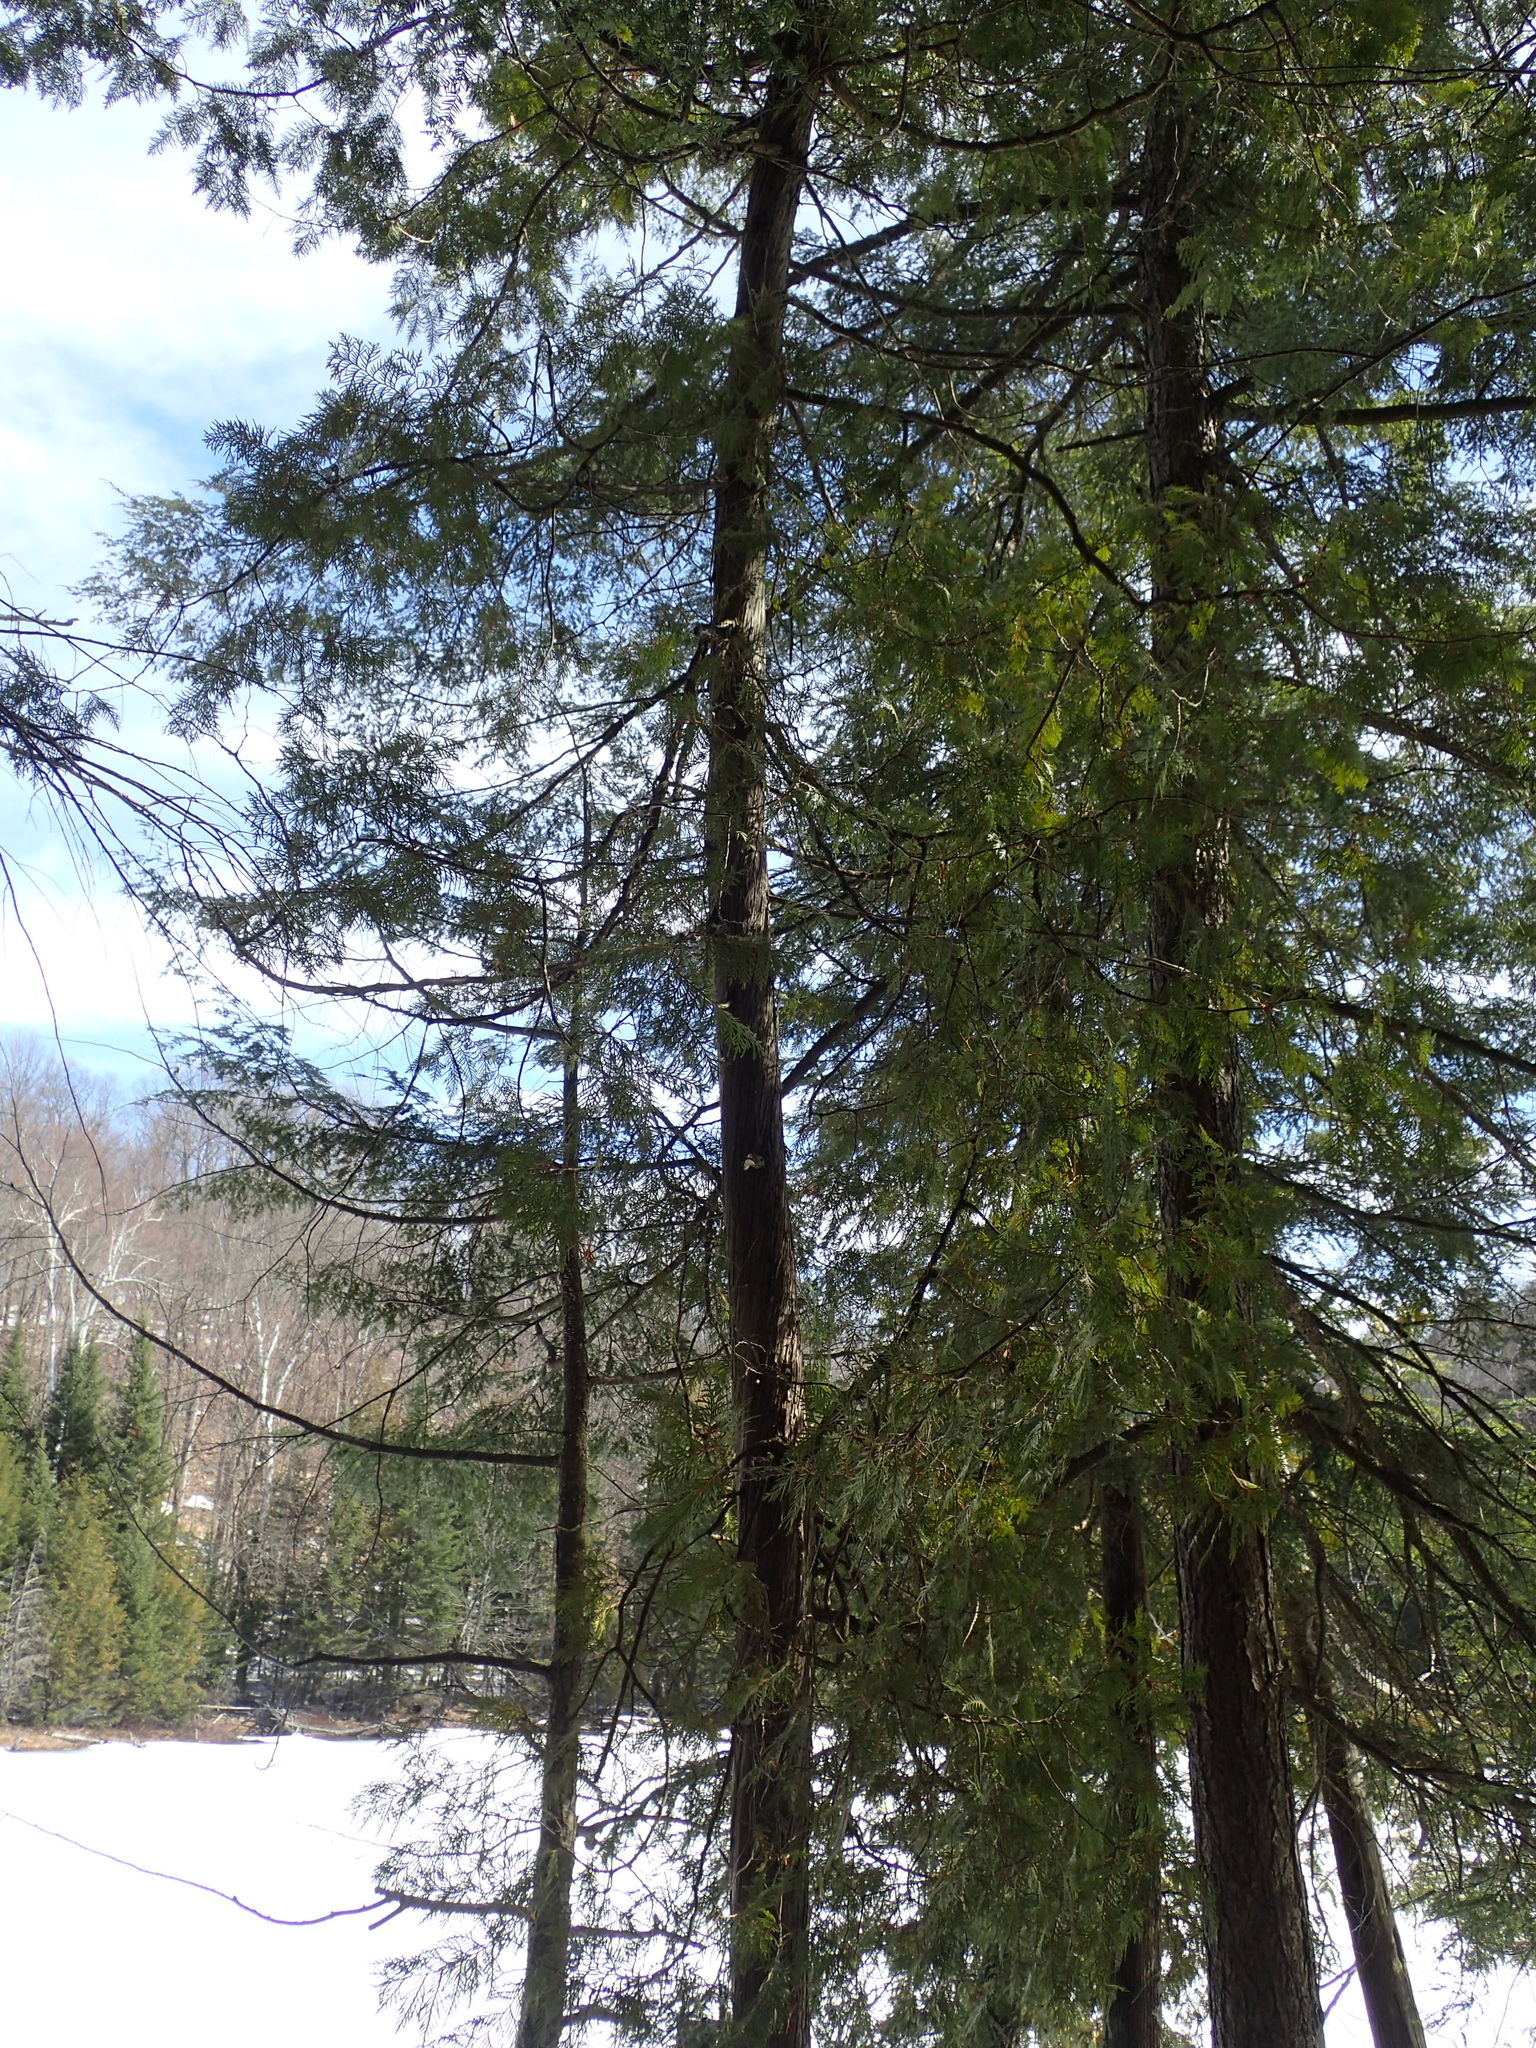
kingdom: Plantae
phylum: Tracheophyta
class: Pinopsida
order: Pinales
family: Cupressaceae
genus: Thuja
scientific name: Thuja occidentalis
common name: Northern white-cedar
